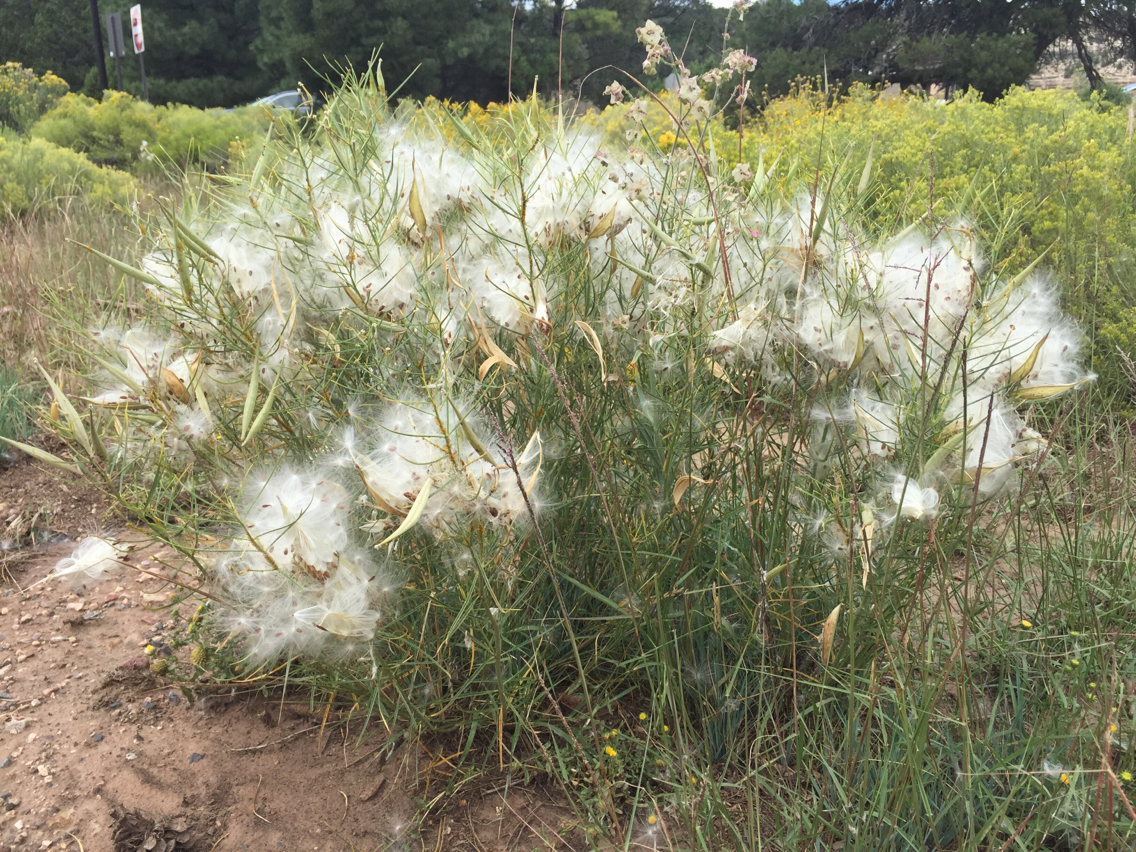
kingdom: Plantae
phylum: Tracheophyta
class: Magnoliopsida
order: Gentianales
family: Apocynaceae
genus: Asclepias
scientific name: Asclepias subverticillata
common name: Horsetail milkweed
